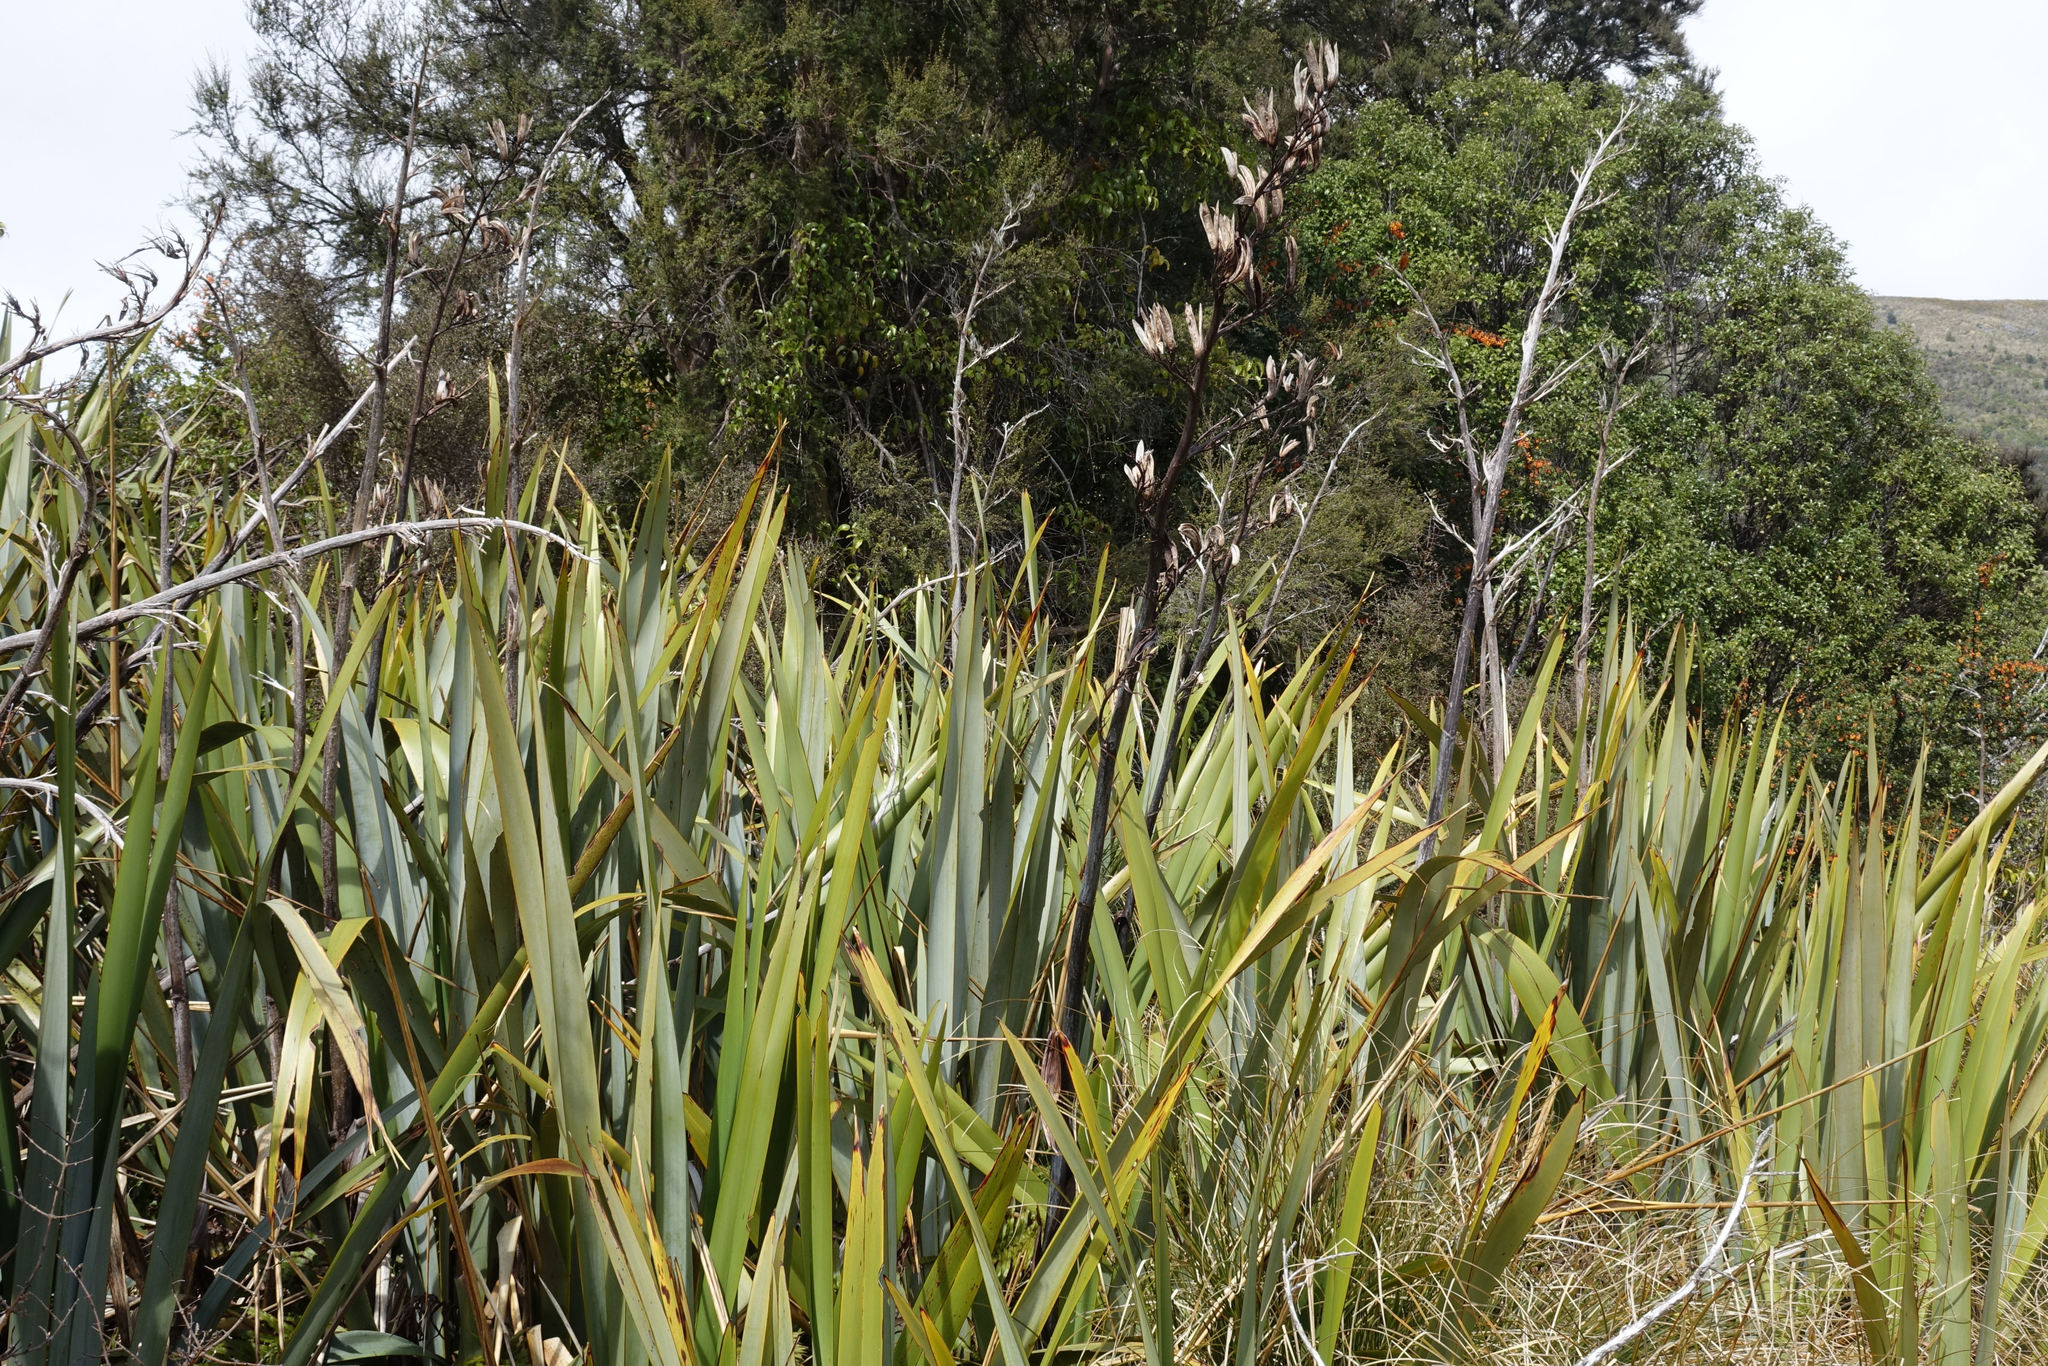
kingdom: Plantae
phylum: Tracheophyta
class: Liliopsida
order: Asparagales
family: Asphodelaceae
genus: Phormium
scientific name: Phormium tenax
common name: New zealand flax
